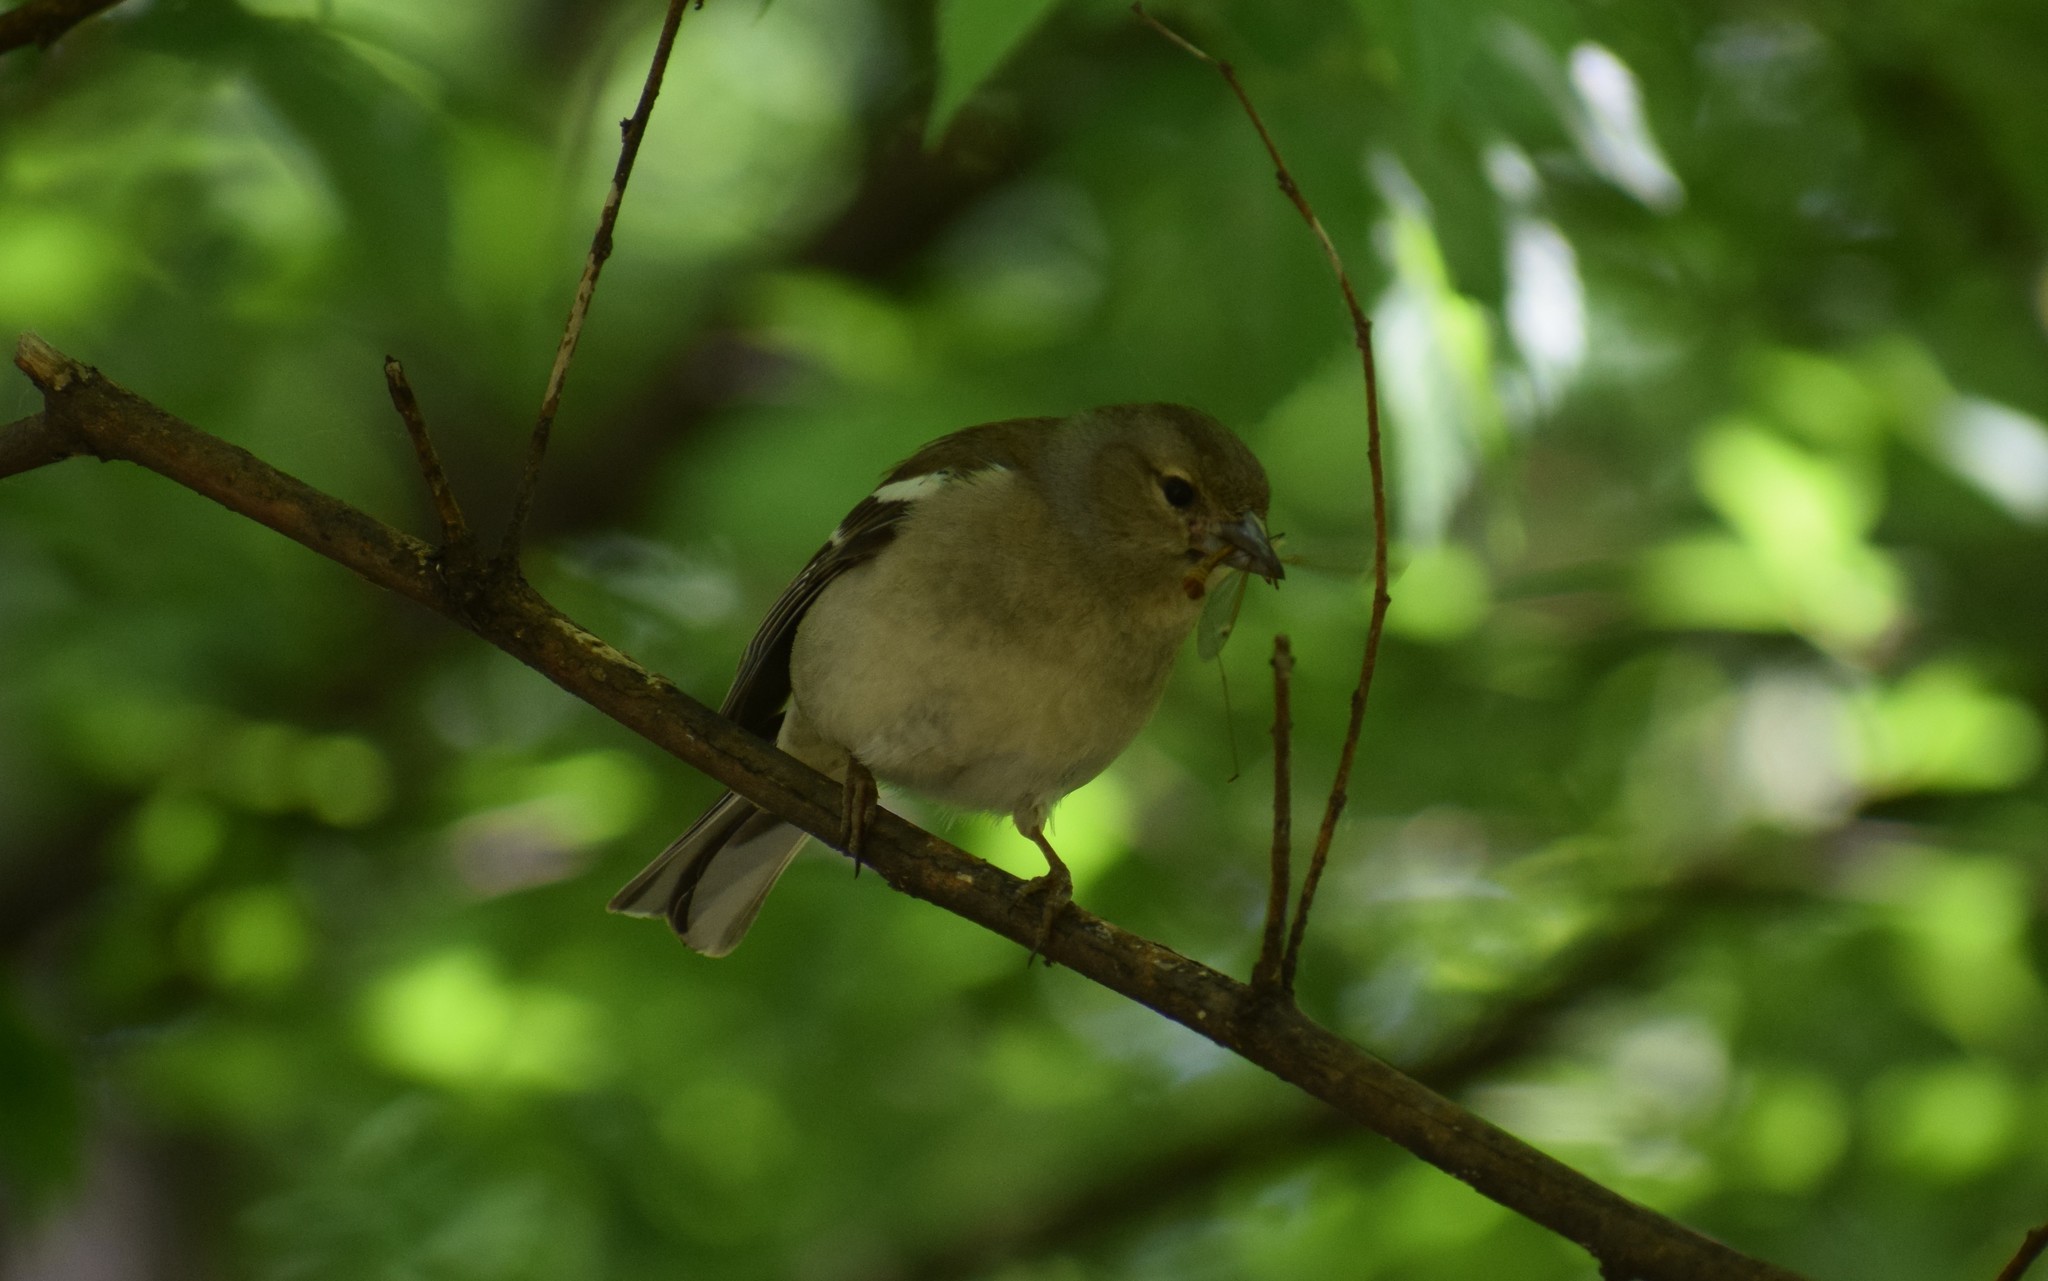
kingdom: Animalia
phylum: Chordata
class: Aves
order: Passeriformes
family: Fringillidae
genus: Fringilla
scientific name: Fringilla coelebs
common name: Common chaffinch
